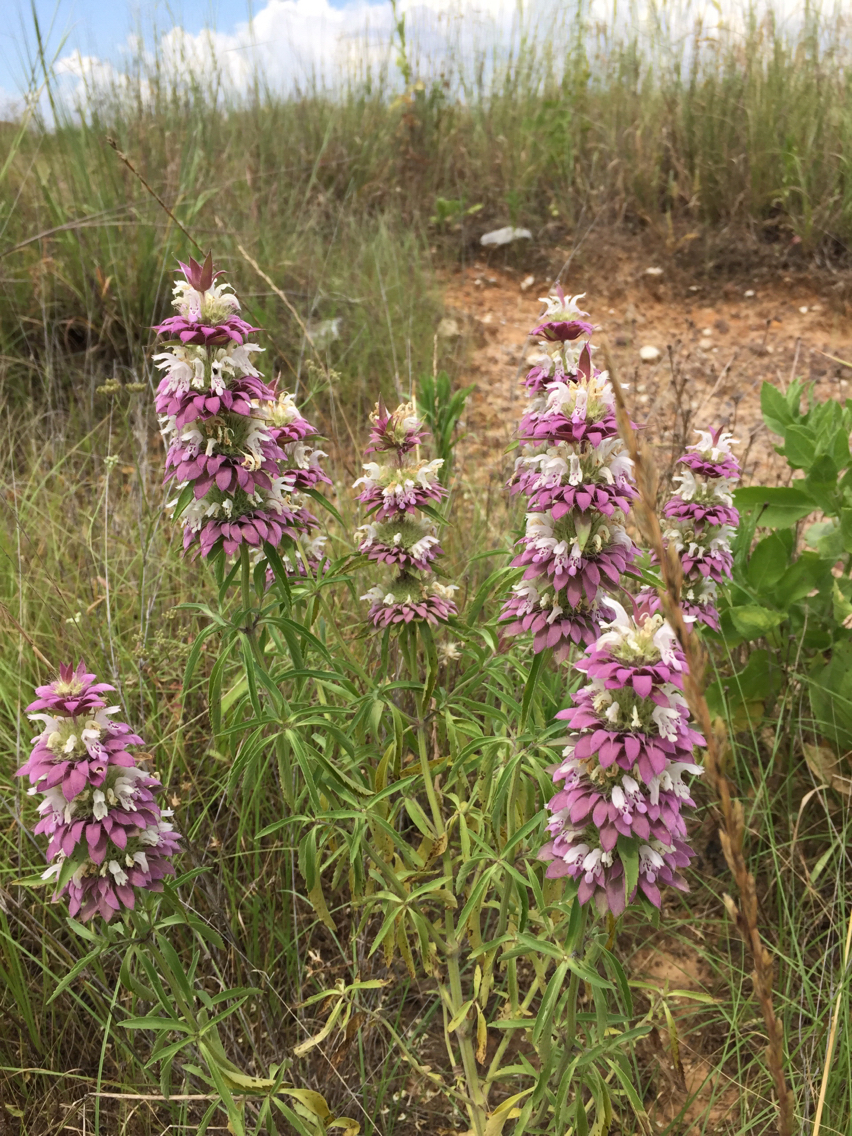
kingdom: Plantae
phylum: Tracheophyta
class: Magnoliopsida
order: Lamiales
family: Lamiaceae
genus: Monarda
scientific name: Monarda citriodora
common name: Lemon beebalm
